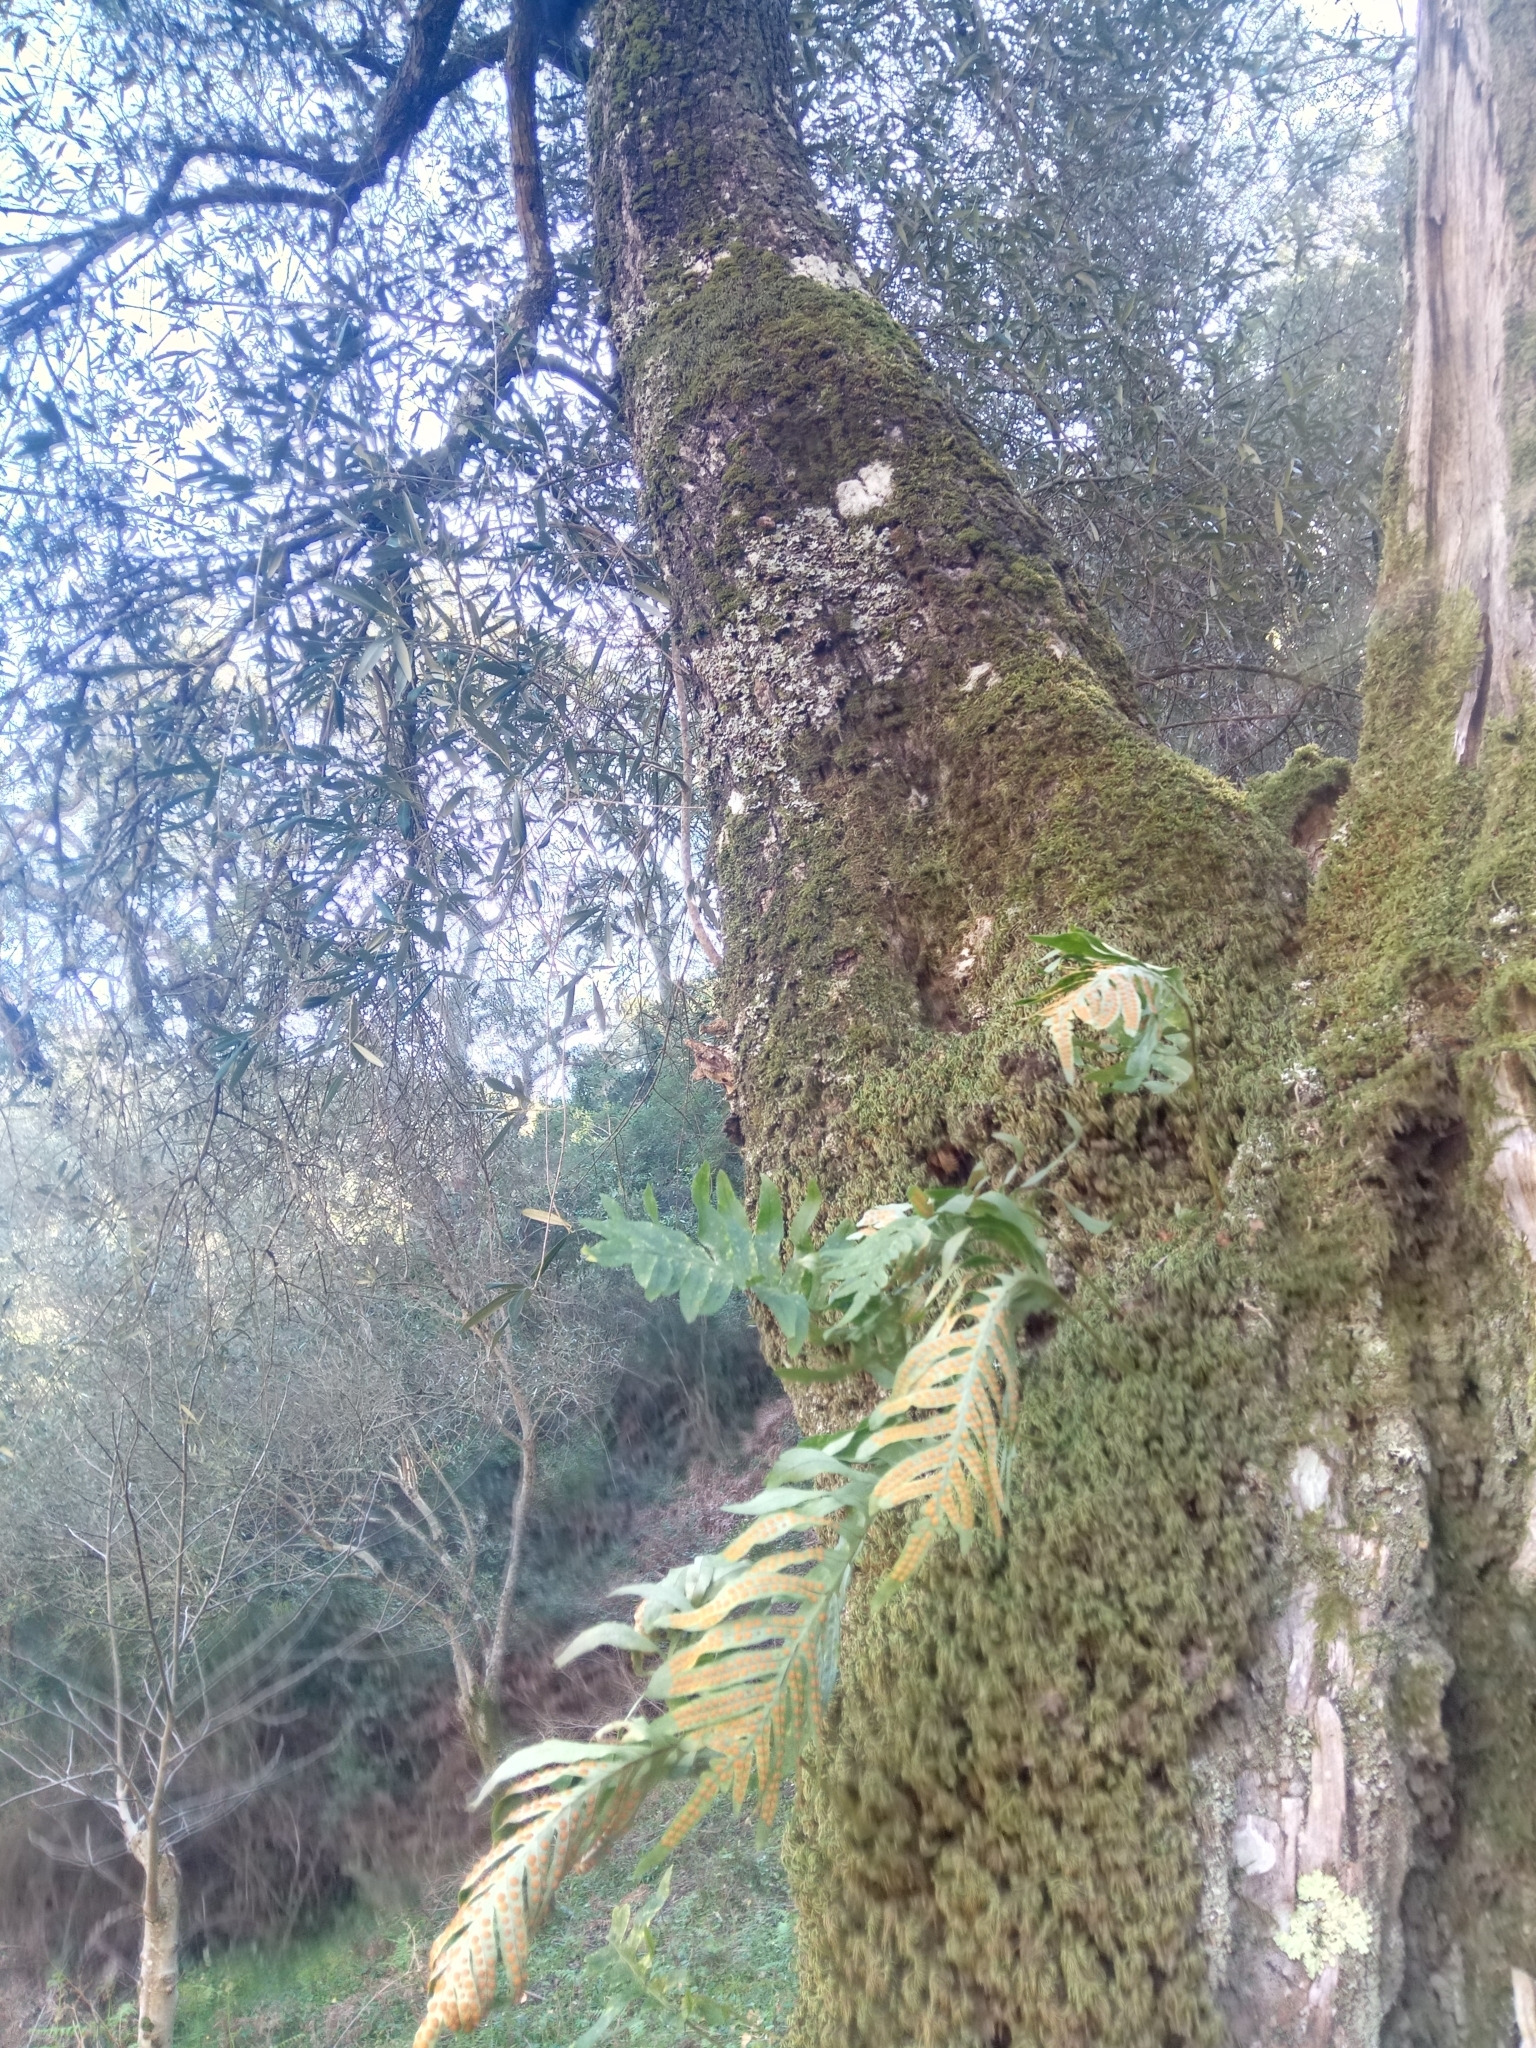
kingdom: Plantae
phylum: Tracheophyta
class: Polypodiopsida
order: Polypodiales
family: Polypodiaceae
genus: Polypodium
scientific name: Polypodium cambricum
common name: Southern polypody
